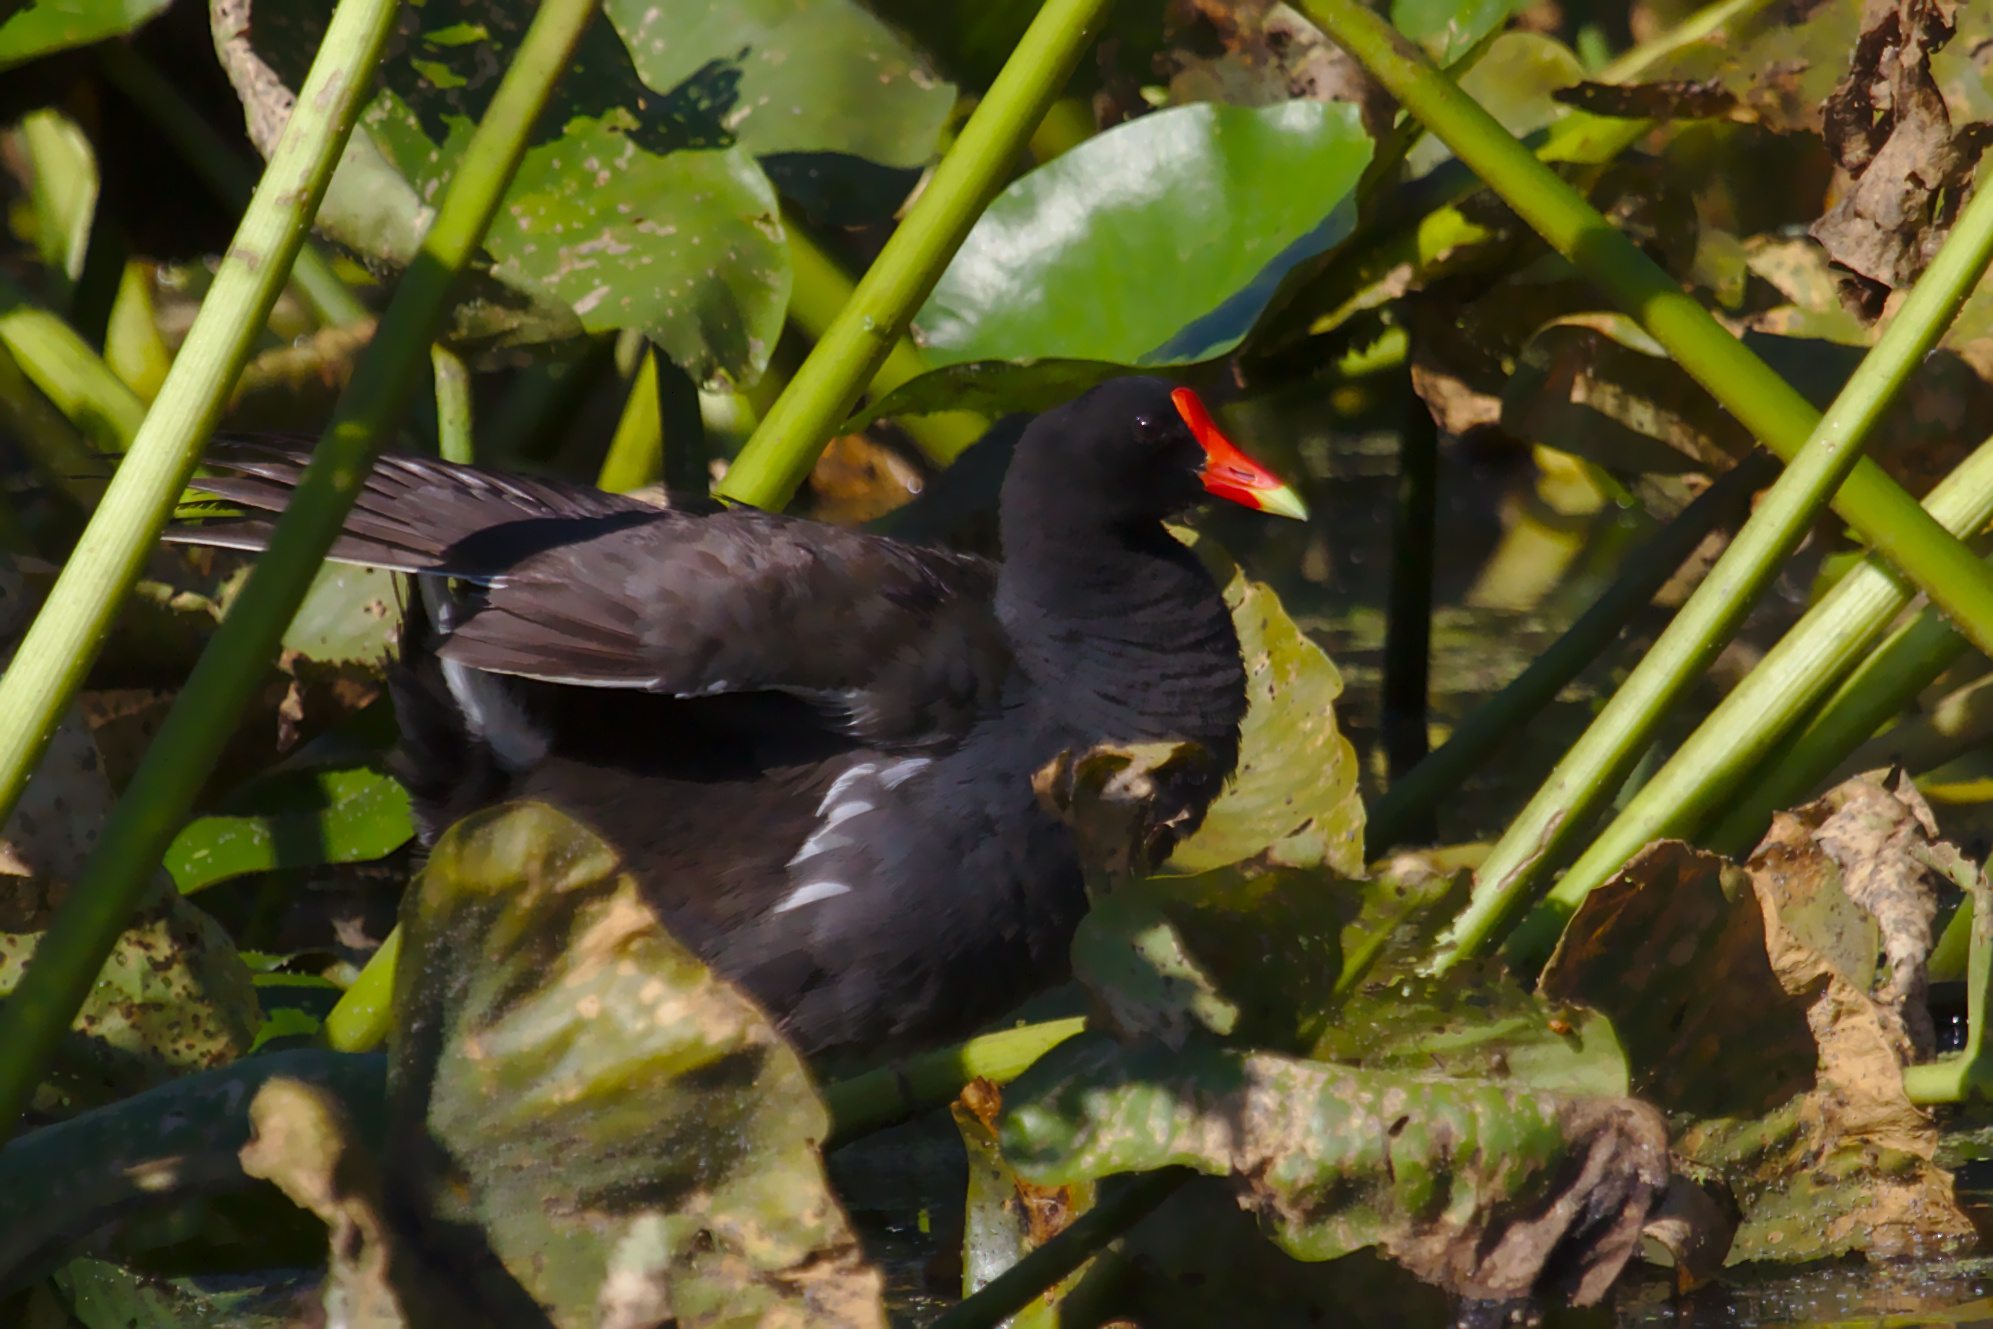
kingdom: Animalia
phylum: Chordata
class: Aves
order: Gruiformes
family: Rallidae
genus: Gallinula
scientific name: Gallinula chloropus
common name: Common moorhen
